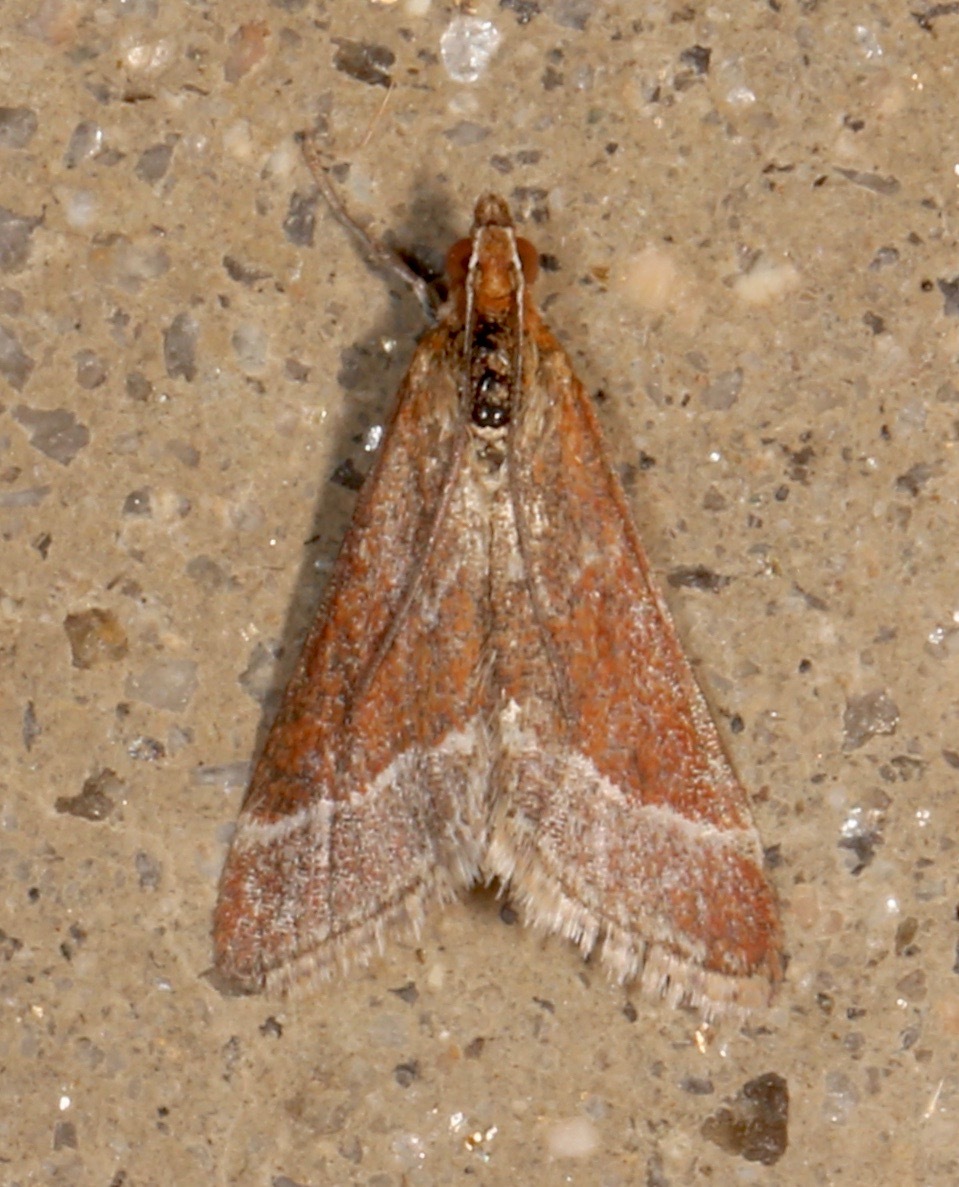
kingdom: Animalia
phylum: Arthropoda
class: Insecta
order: Lepidoptera
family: Crambidae
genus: Pyrausta
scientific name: Pyrausta lethalis
